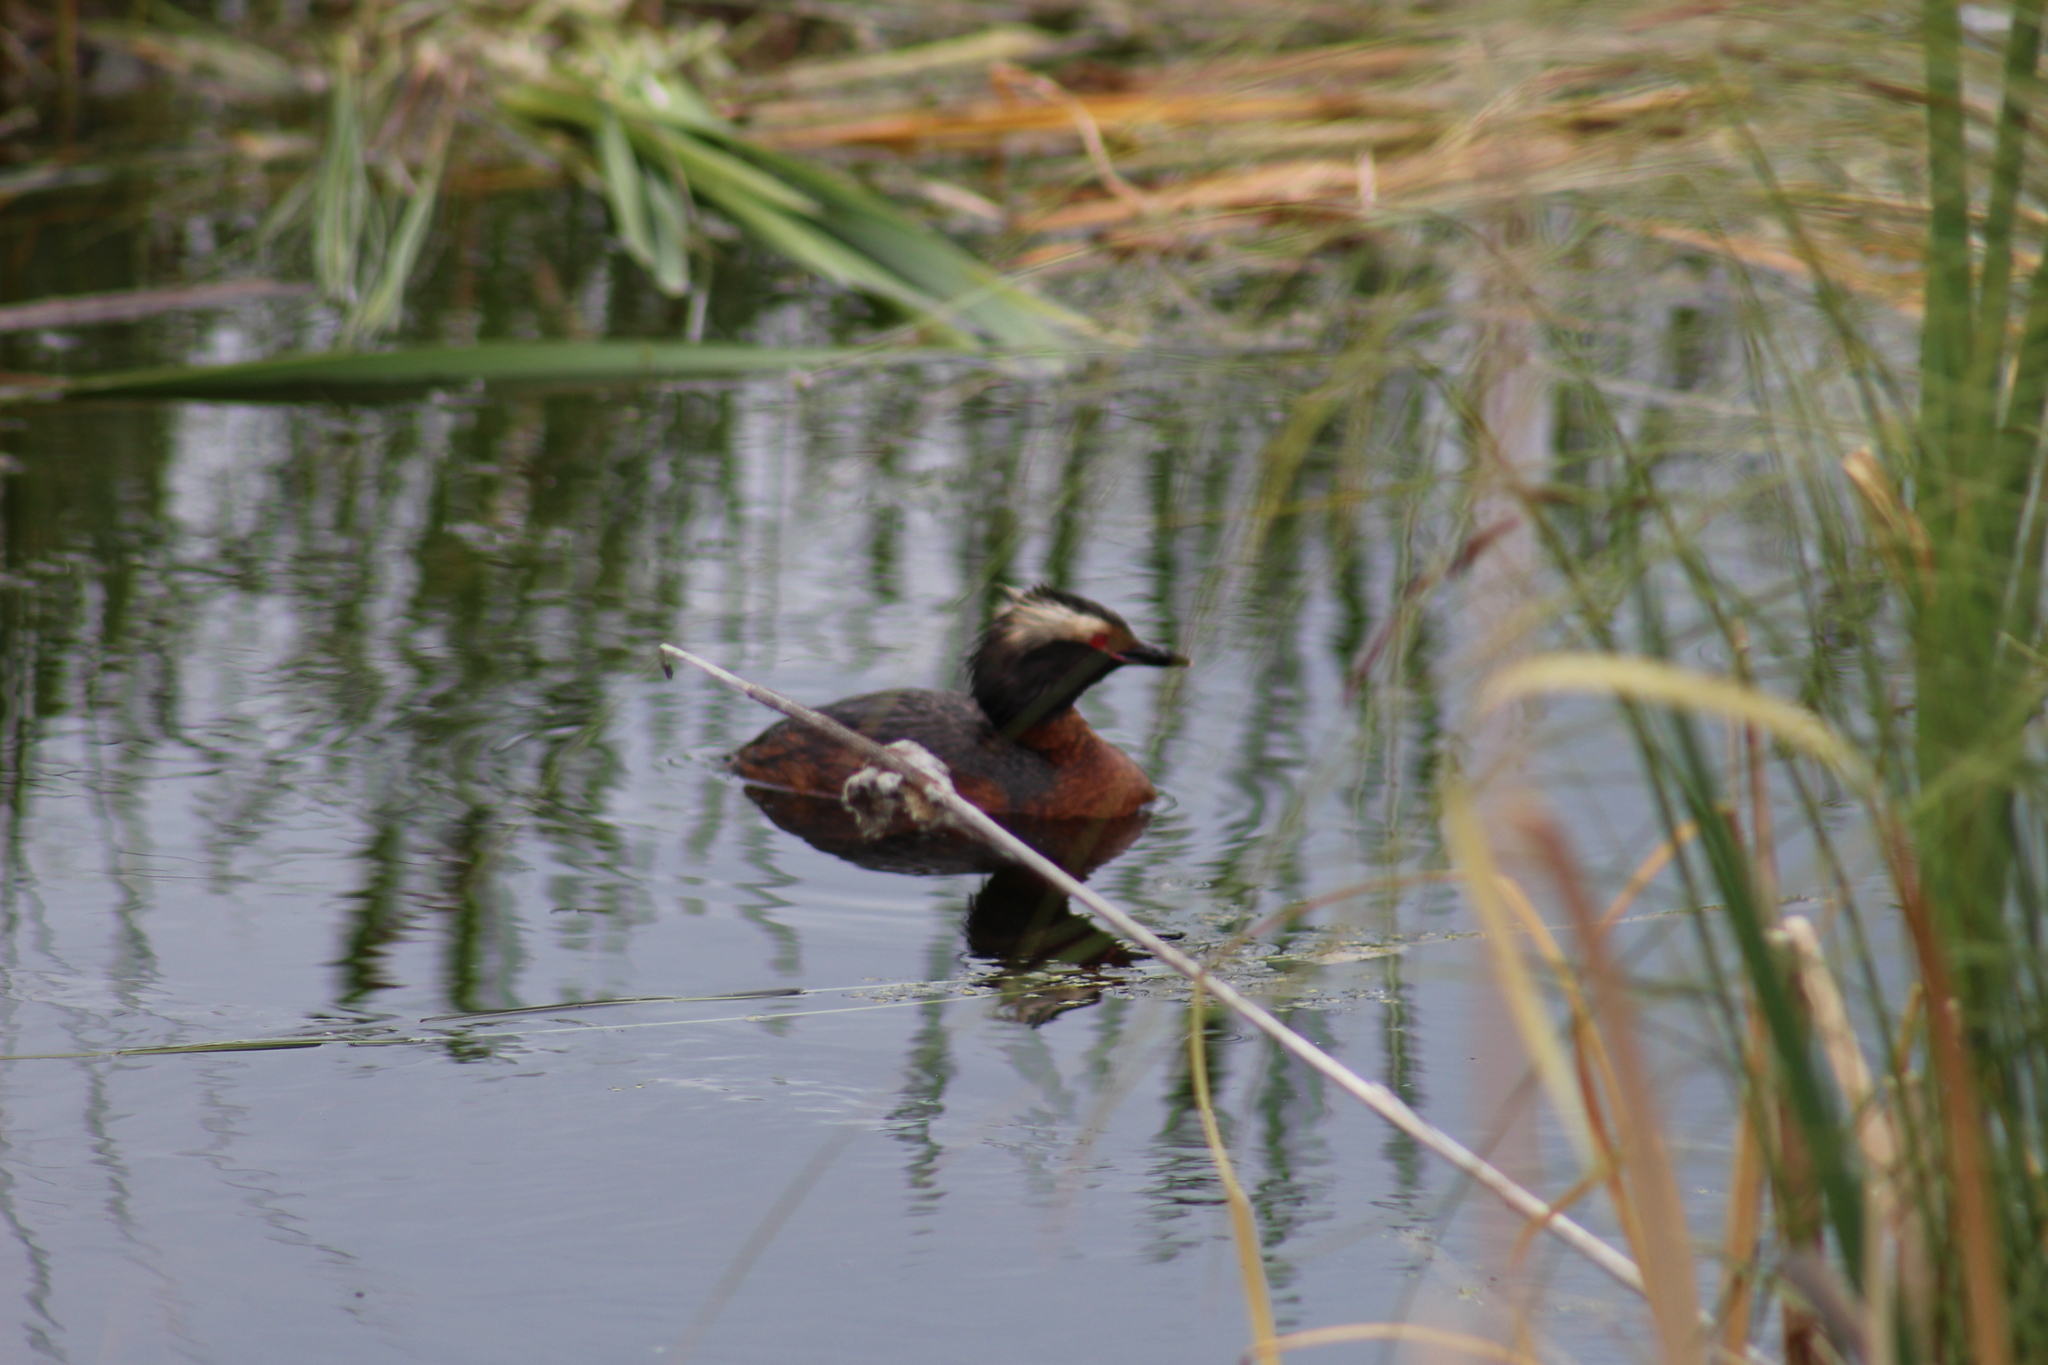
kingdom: Animalia
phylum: Chordata
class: Aves
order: Podicipediformes
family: Podicipedidae
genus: Podiceps
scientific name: Podiceps auritus
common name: Horned grebe
